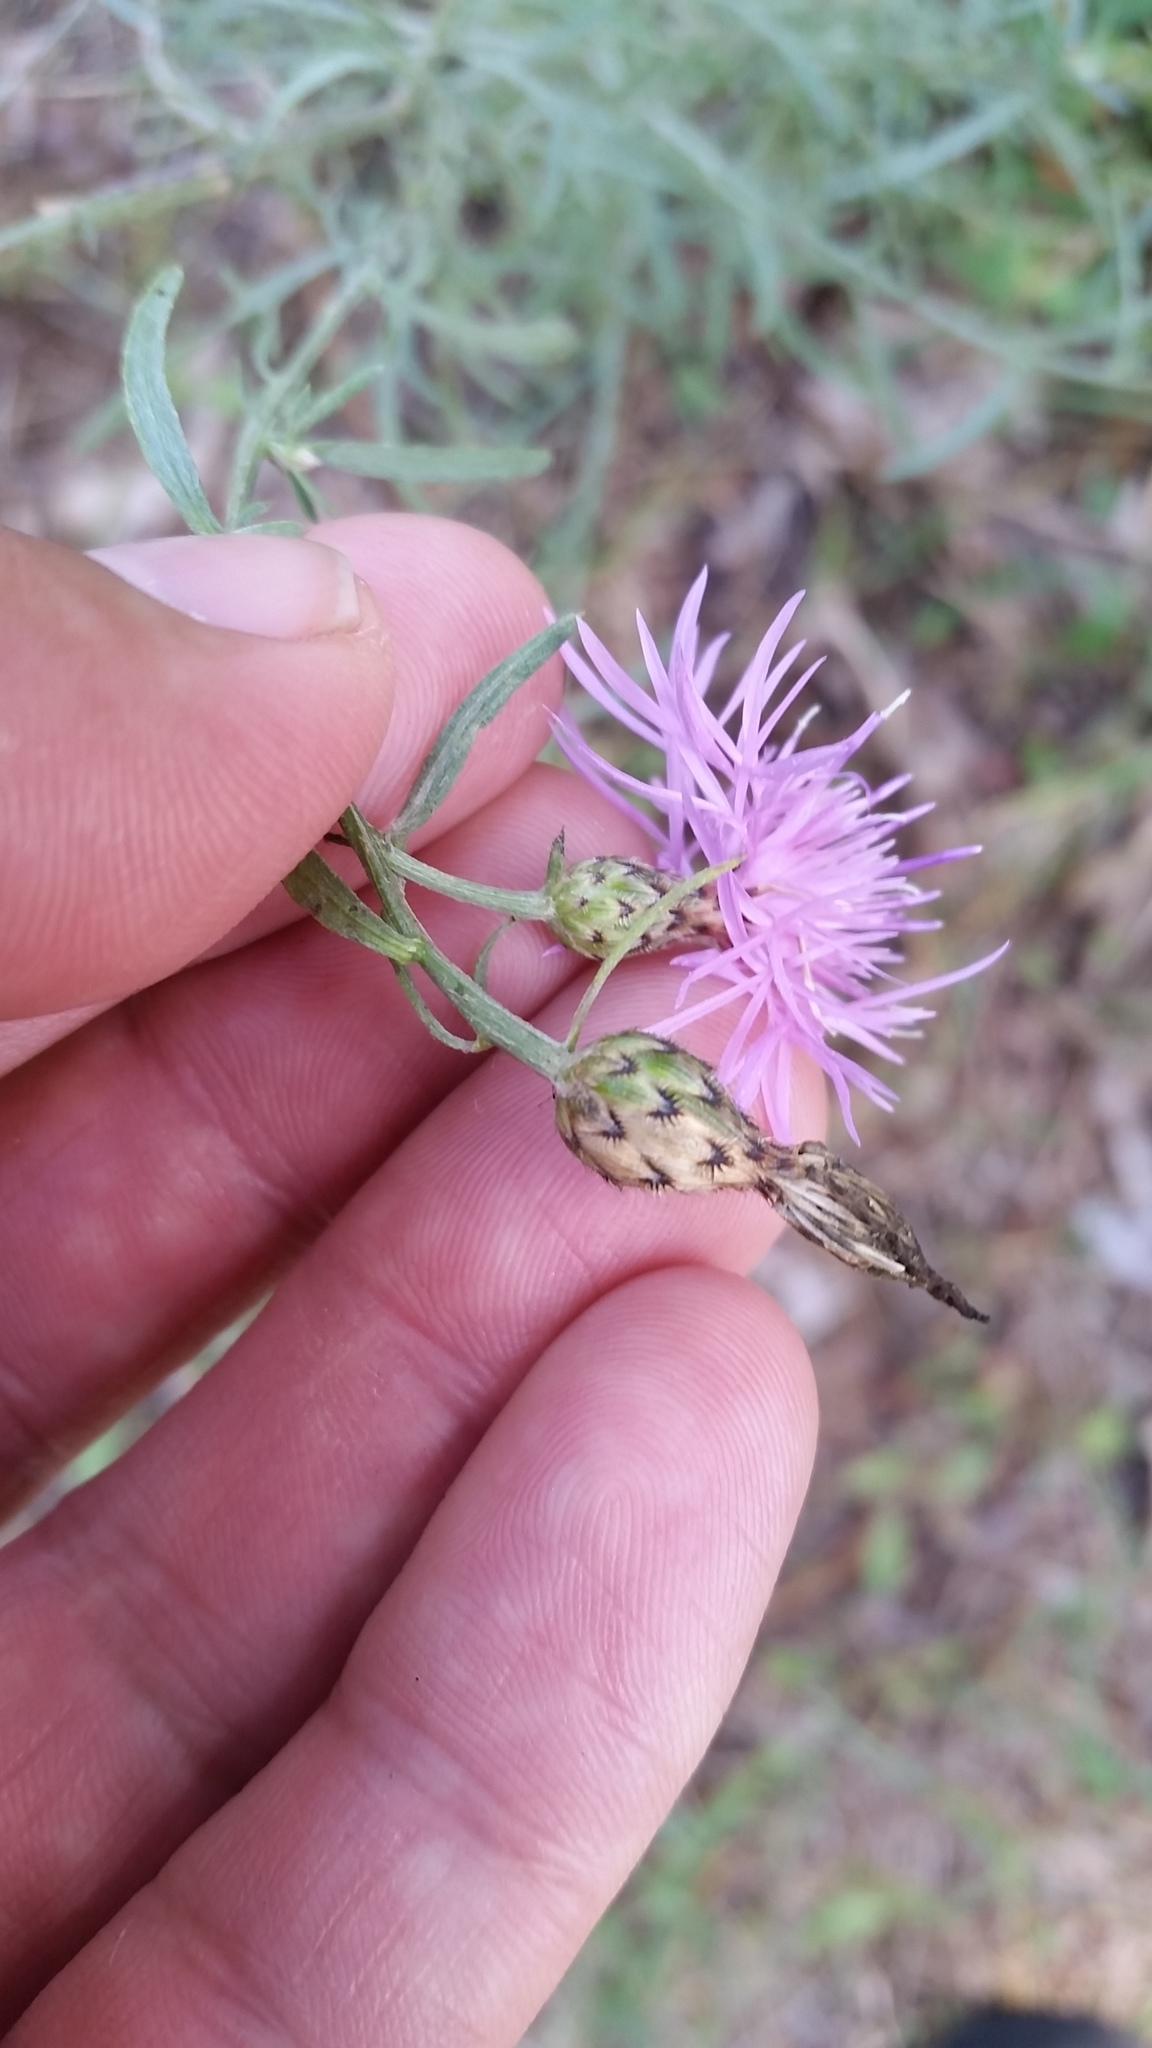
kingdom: Plantae
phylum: Tracheophyta
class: Magnoliopsida
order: Asterales
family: Asteraceae
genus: Centaurea
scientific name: Centaurea australis
